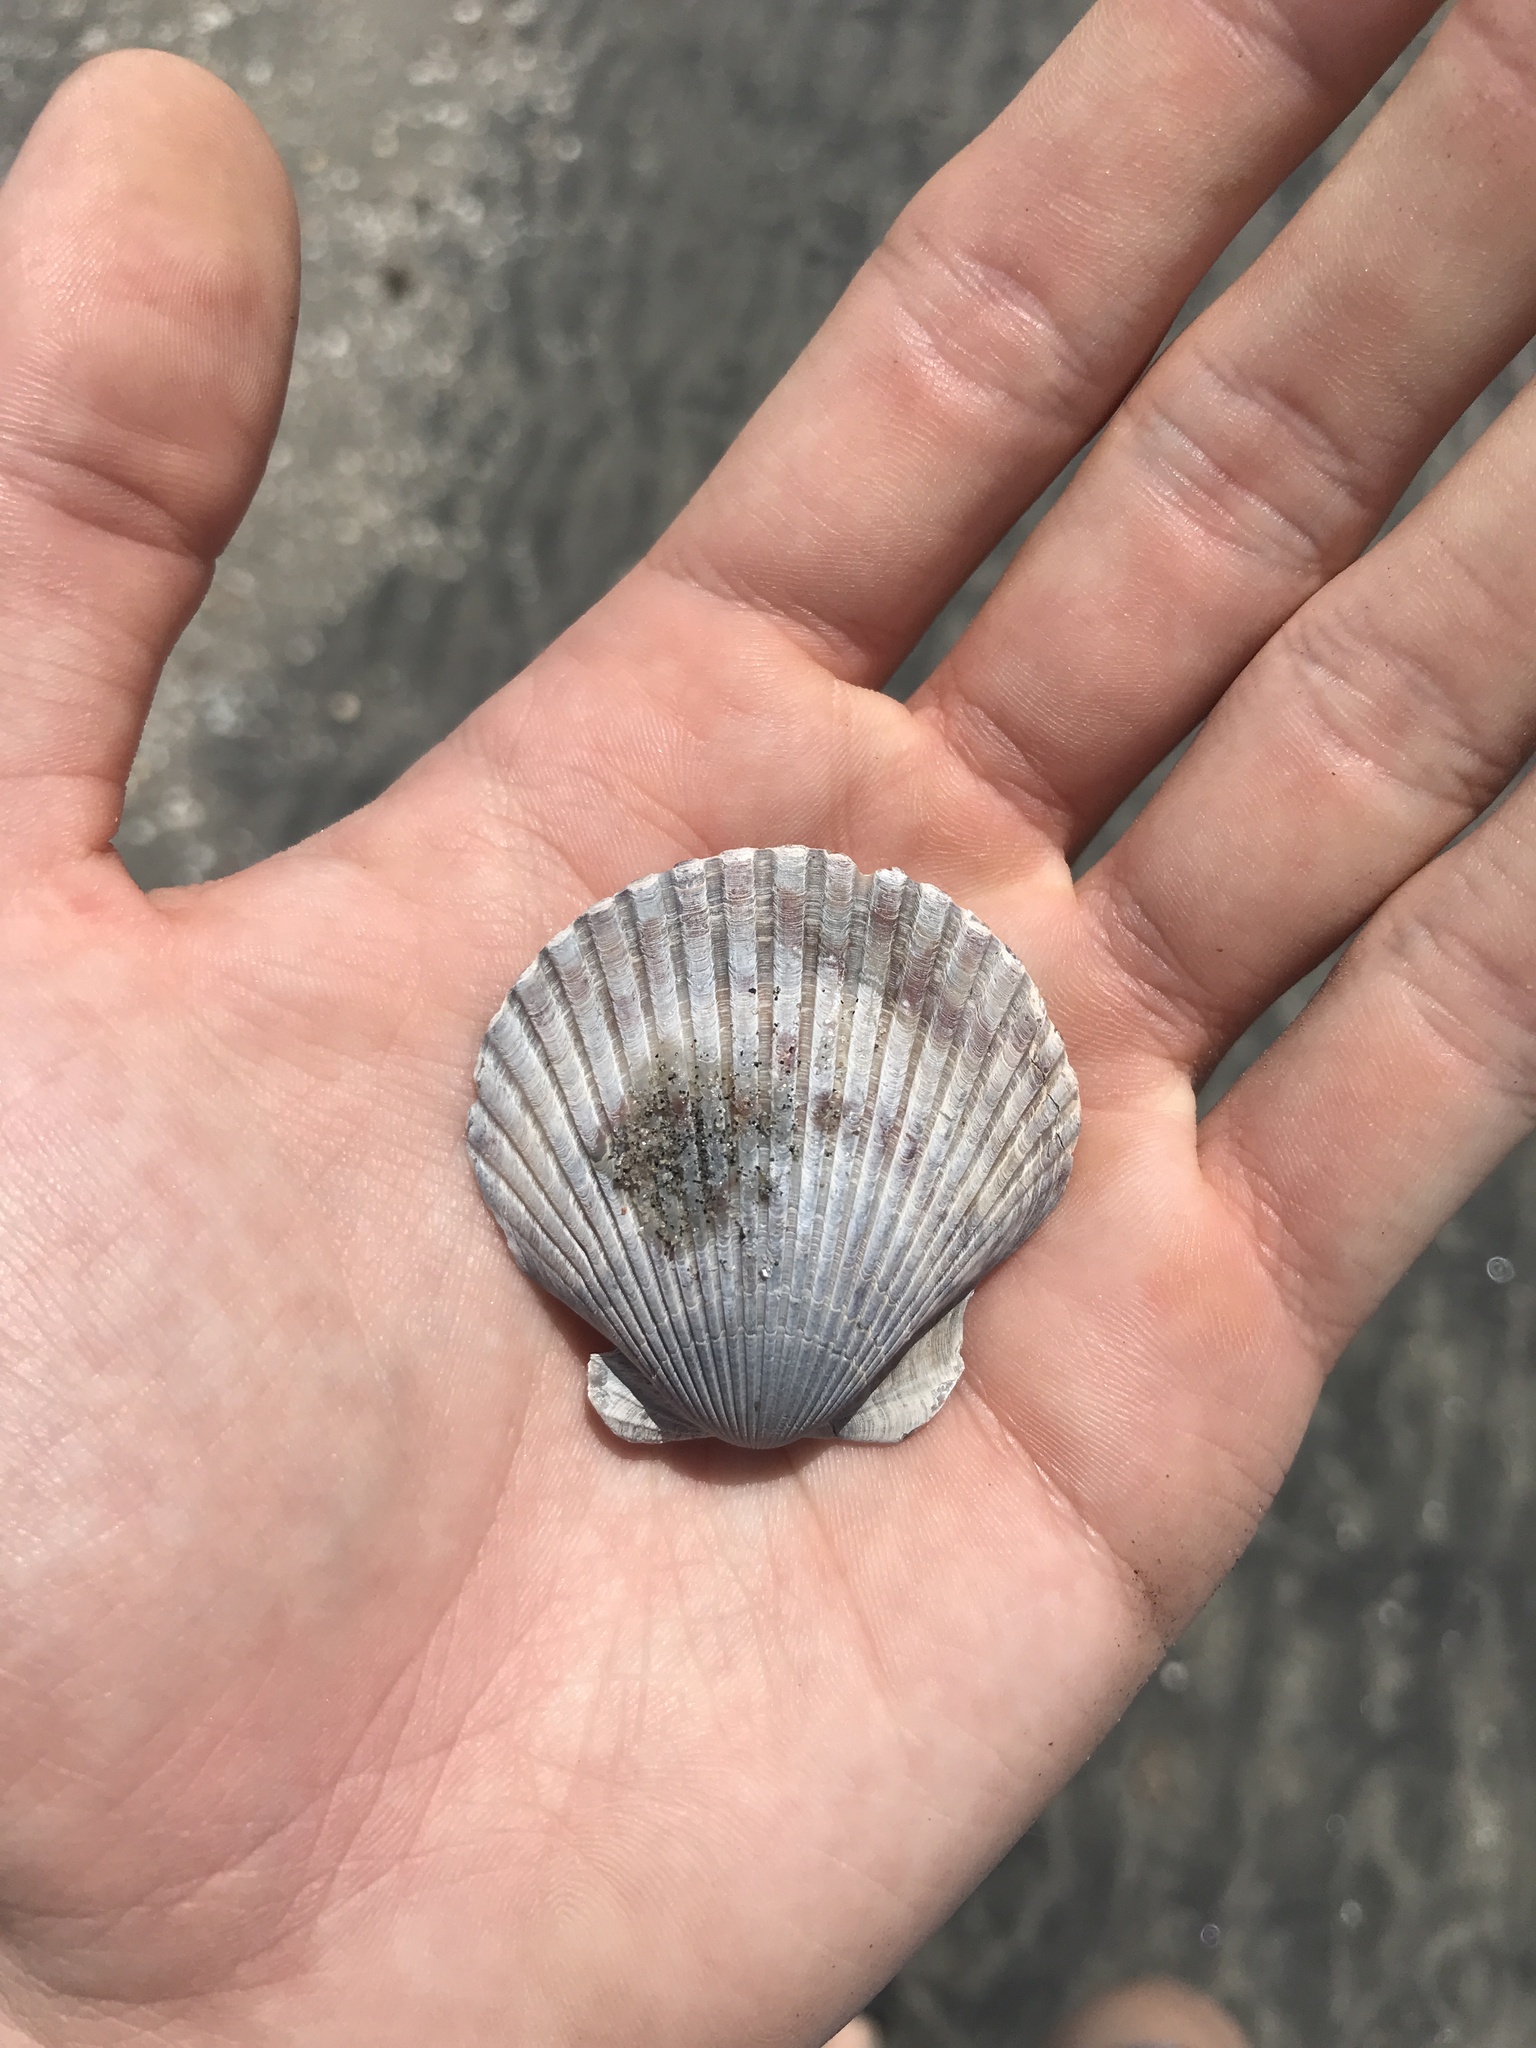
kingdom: Animalia
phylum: Mollusca
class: Bivalvia
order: Pectinida
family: Pectinidae
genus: Argopecten
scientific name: Argopecten ventricosus
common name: Catarina scallop
